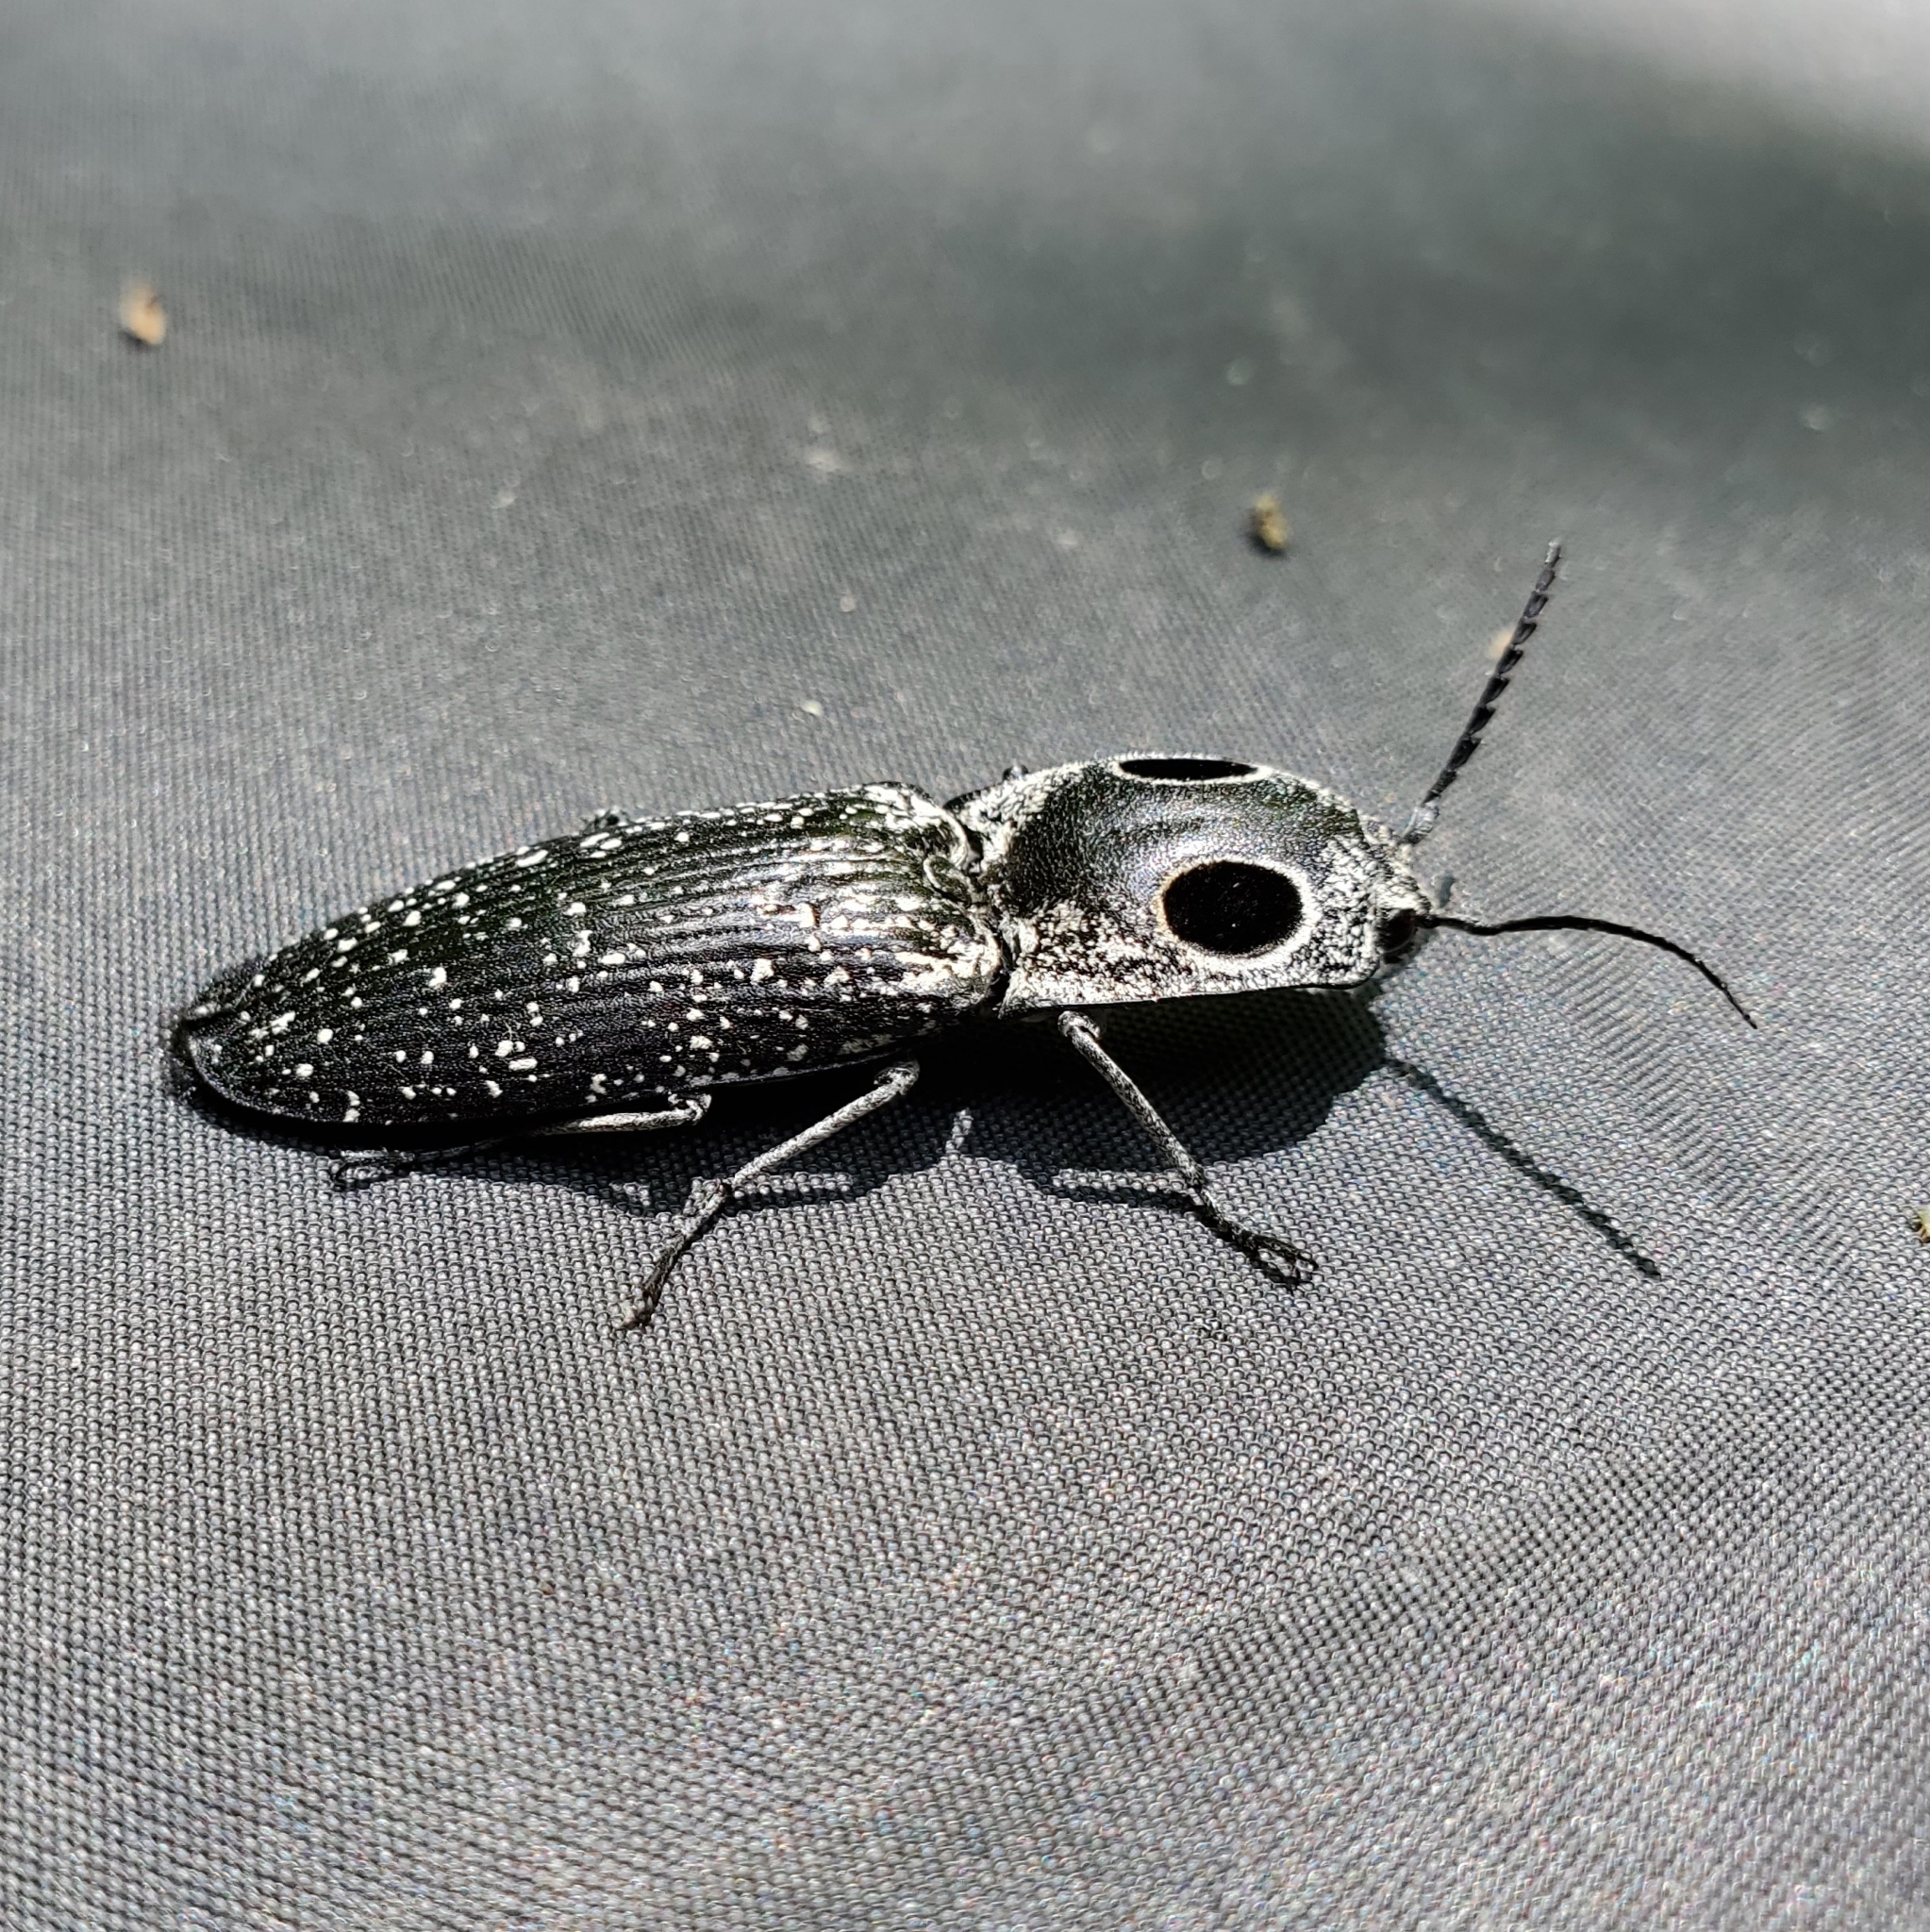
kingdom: Animalia
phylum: Arthropoda
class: Insecta
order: Coleoptera
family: Elateridae
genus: Alaus
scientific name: Alaus oculatus
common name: Eastern eyed click beetle
